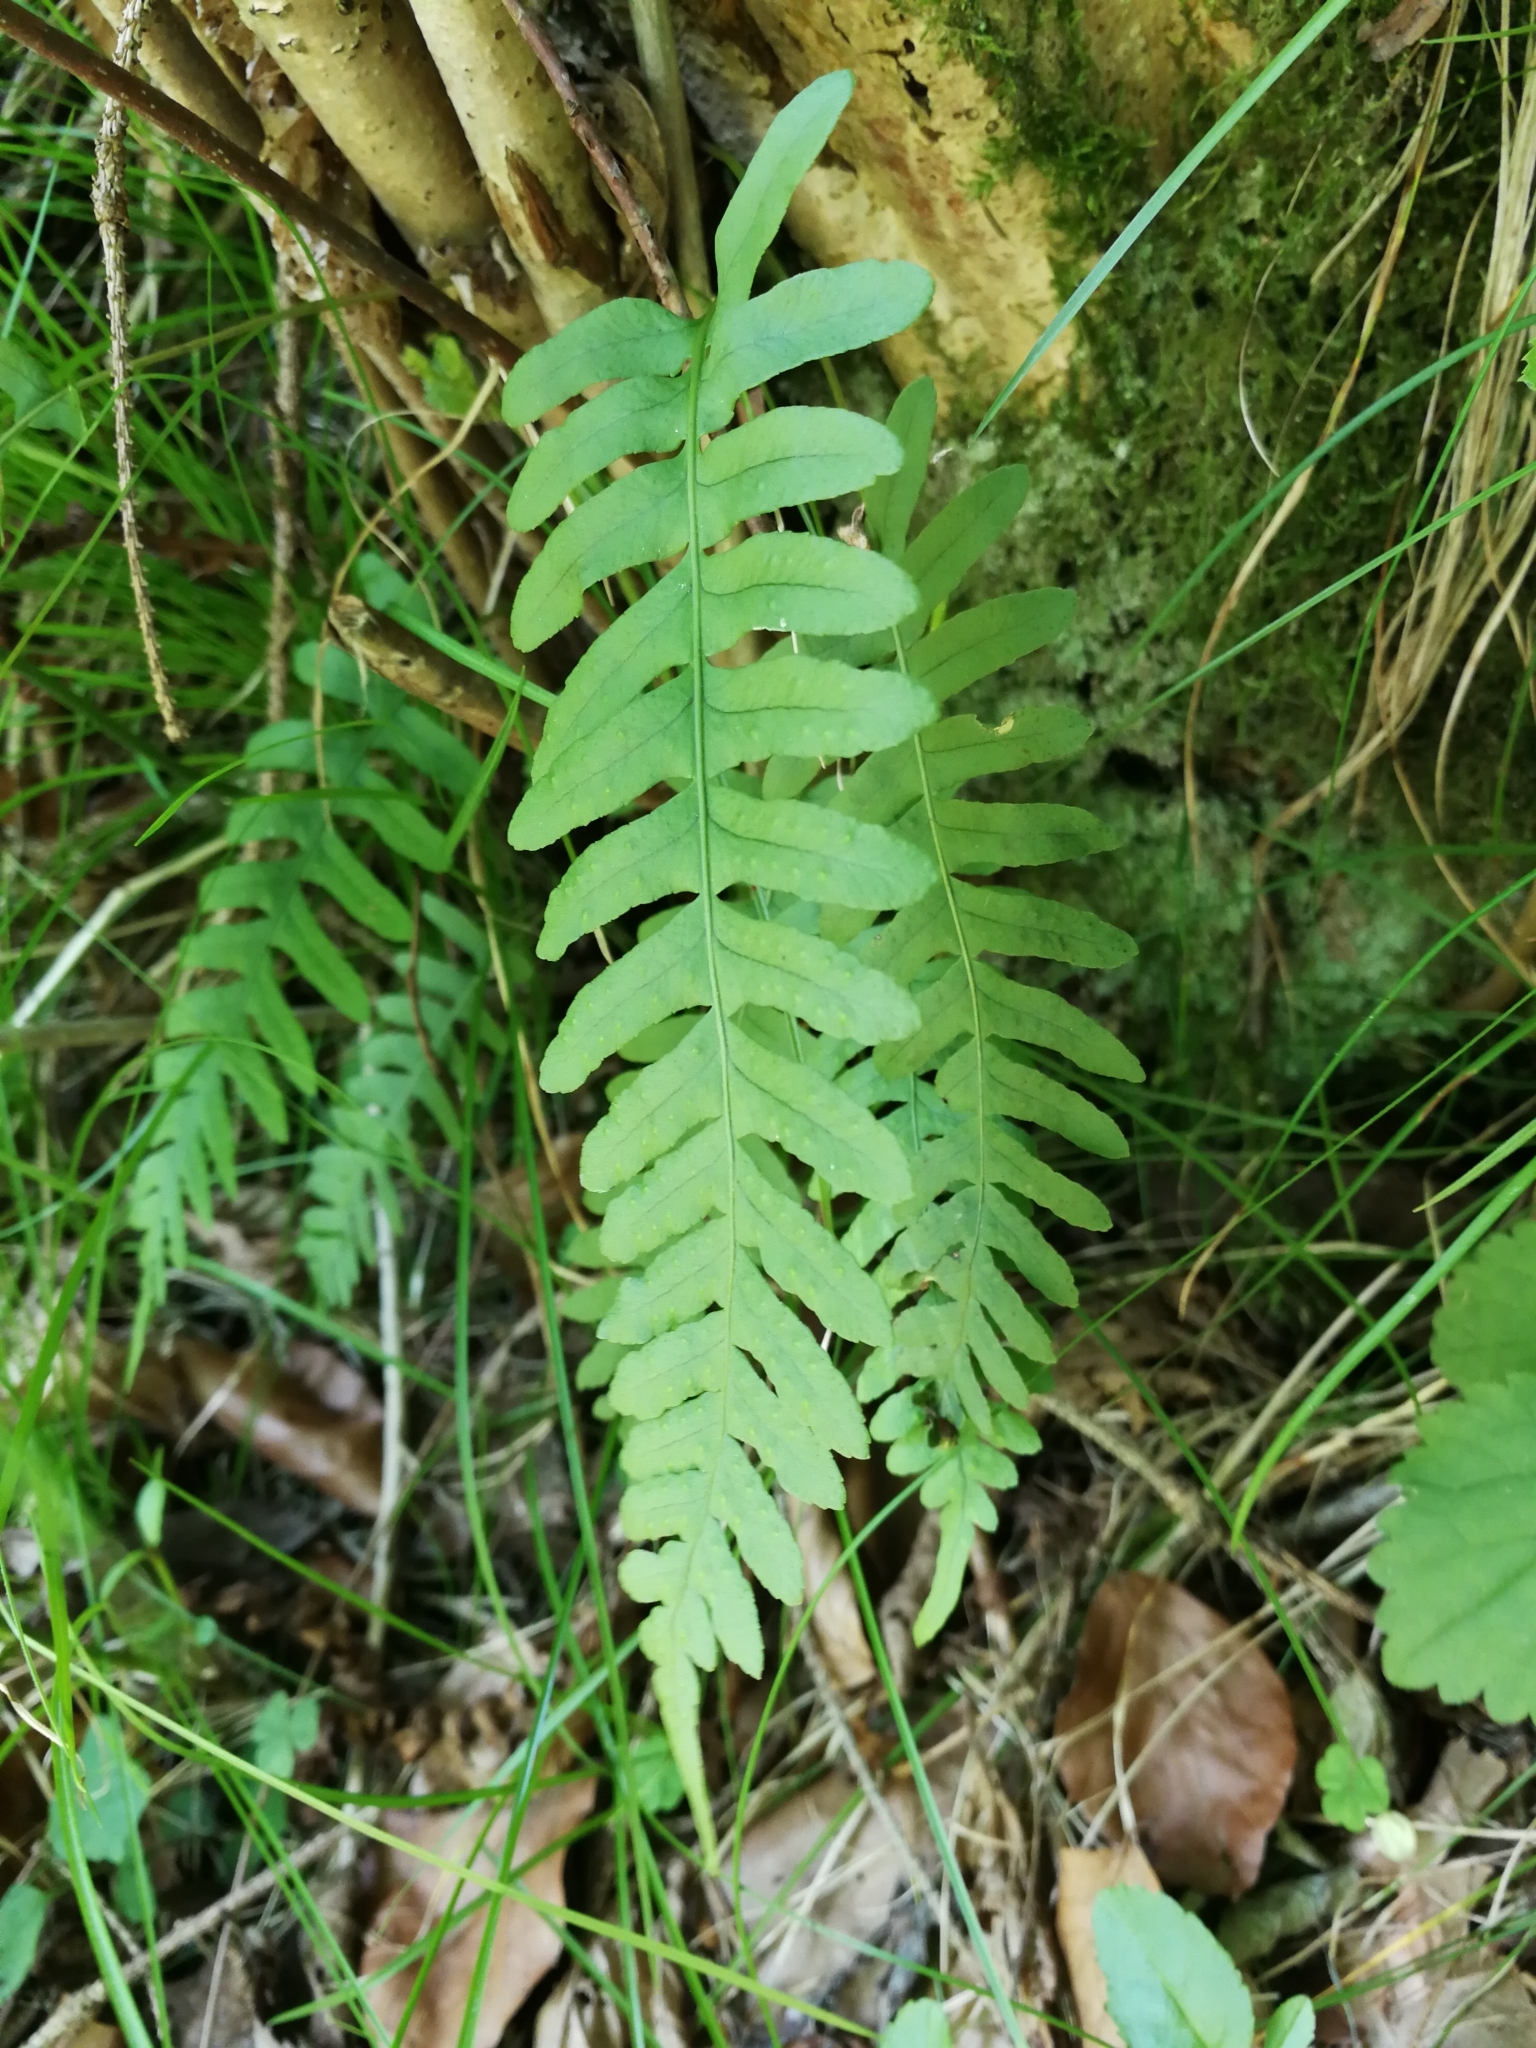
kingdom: Plantae
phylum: Tracheophyta
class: Polypodiopsida
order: Polypodiales
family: Polypodiaceae
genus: Polypodium
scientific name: Polypodium vulgare
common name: Common polypody
